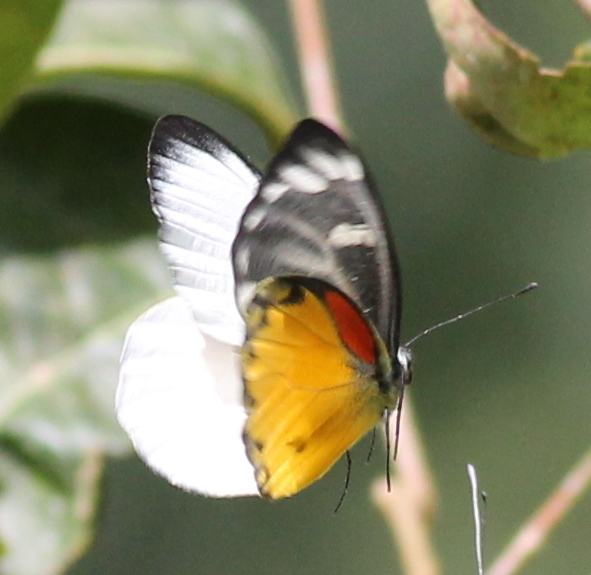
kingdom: Animalia
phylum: Arthropoda
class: Insecta
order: Lepidoptera
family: Pieridae
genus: Delias
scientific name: Delias descombesi
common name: Red-spot jezebel
